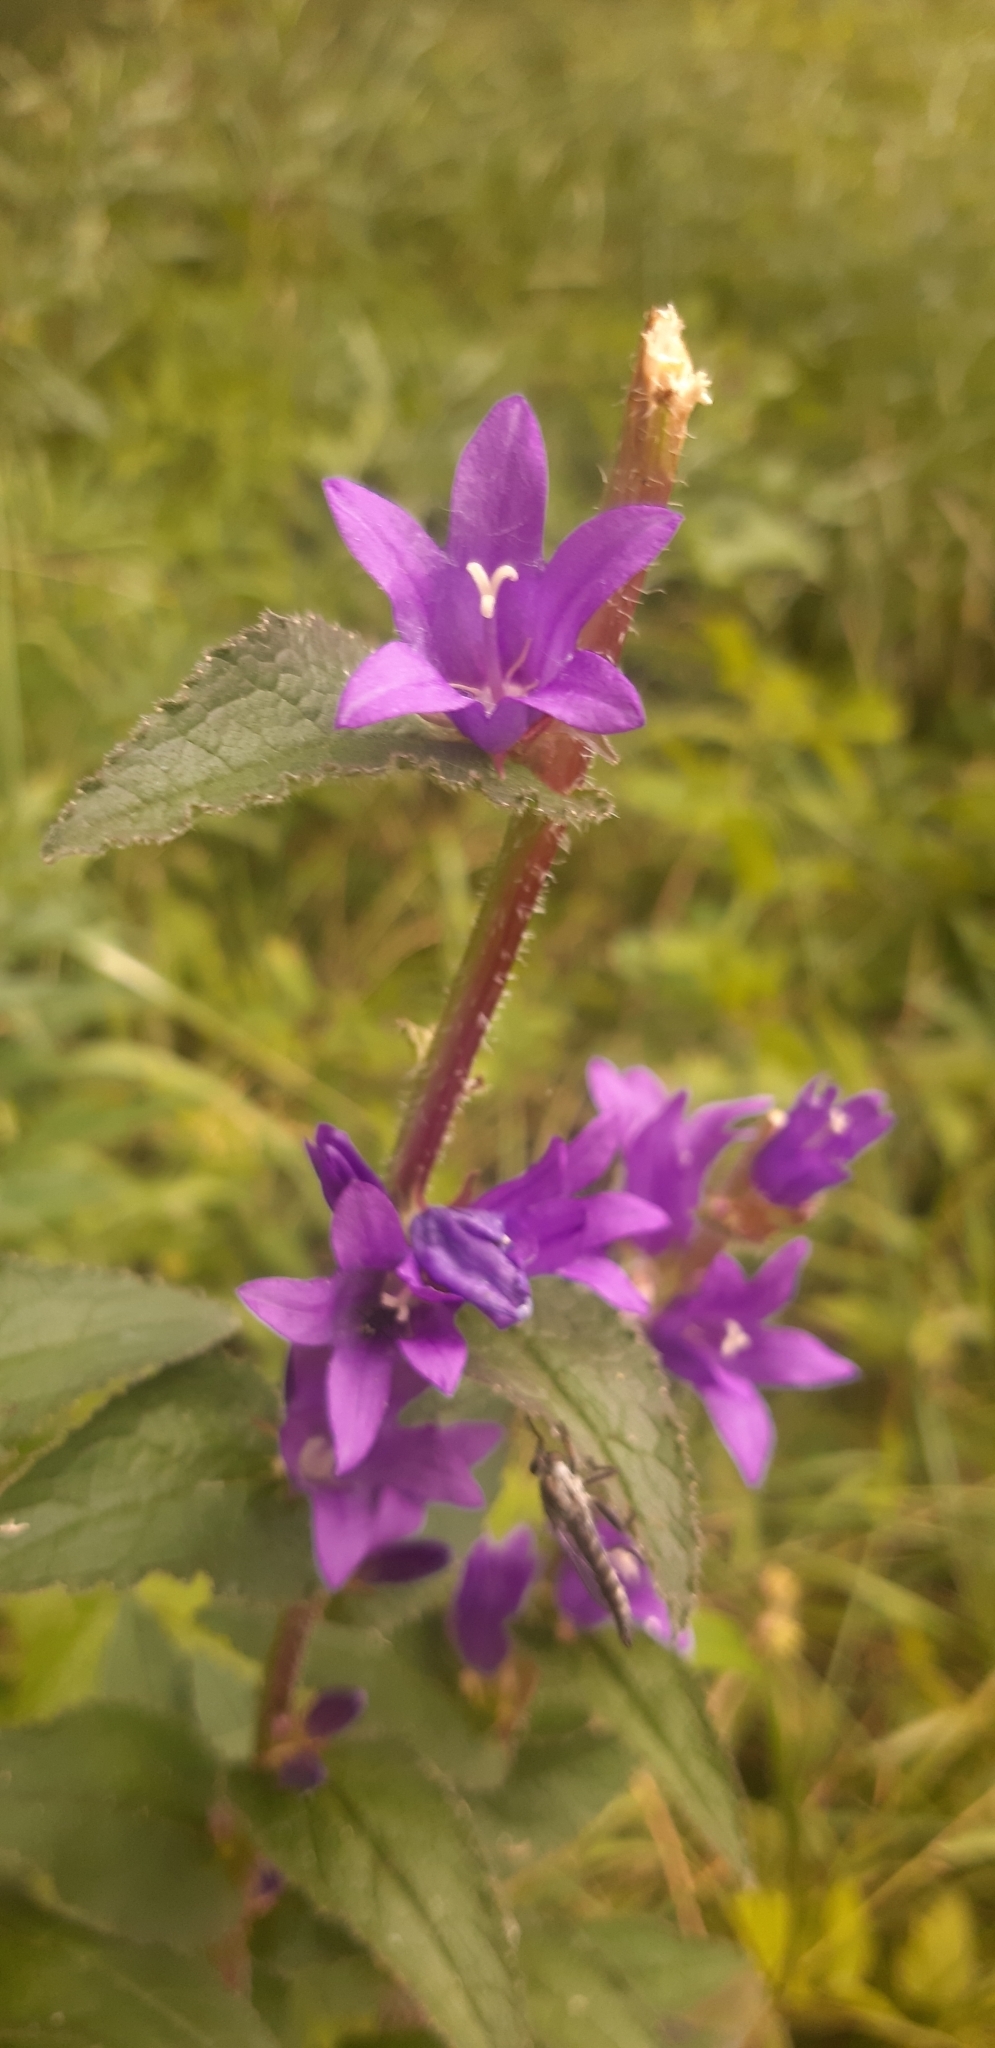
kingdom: Plantae
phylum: Tracheophyta
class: Magnoliopsida
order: Asterales
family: Campanulaceae
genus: Campanula
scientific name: Campanula glomerata
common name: Clustered bellflower
